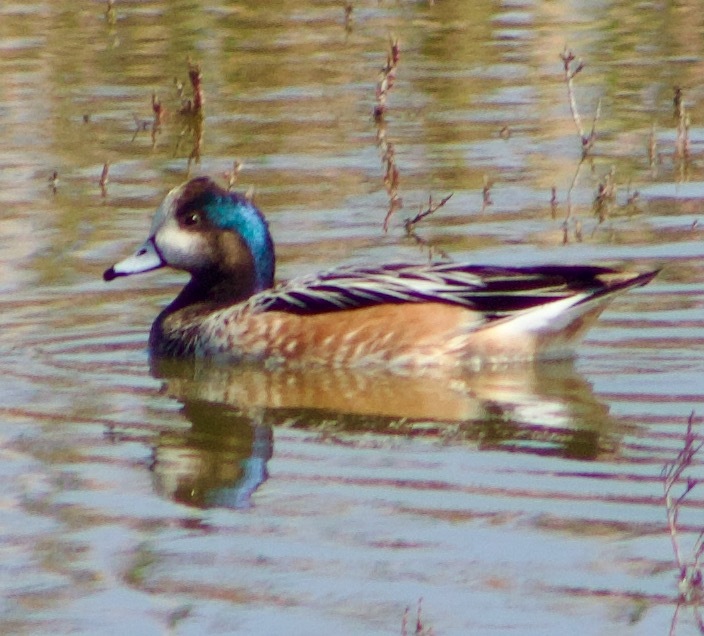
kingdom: Animalia
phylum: Chordata
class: Aves
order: Anseriformes
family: Anatidae
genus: Mareca
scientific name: Mareca sibilatrix
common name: Chiloe wigeon
